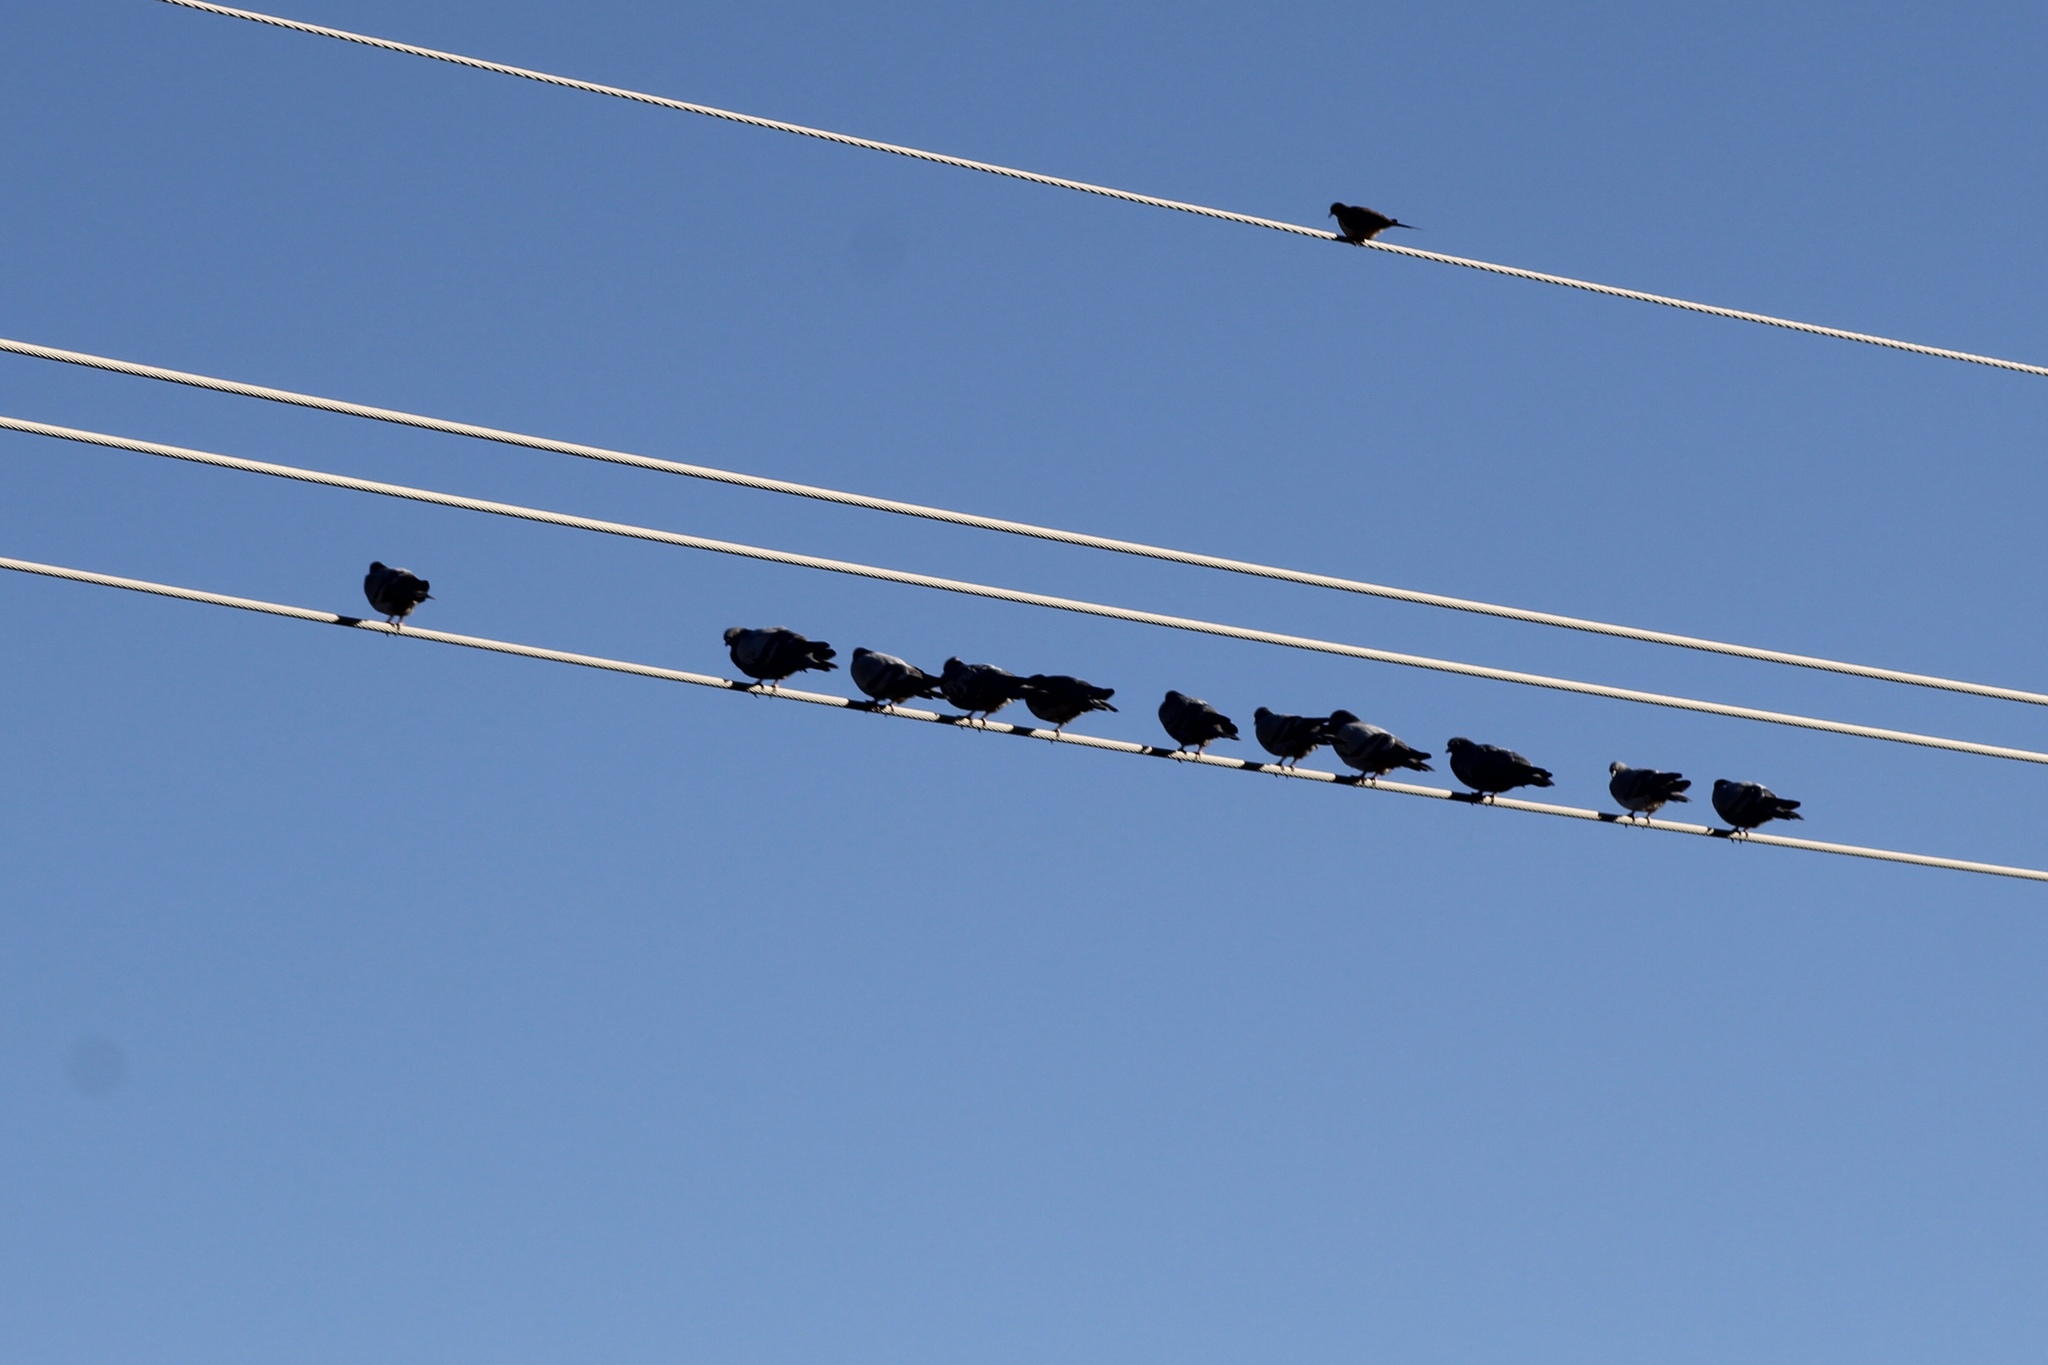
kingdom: Animalia
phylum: Chordata
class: Aves
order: Columbiformes
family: Columbidae
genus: Zenaida
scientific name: Zenaida macroura
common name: Mourning dove
